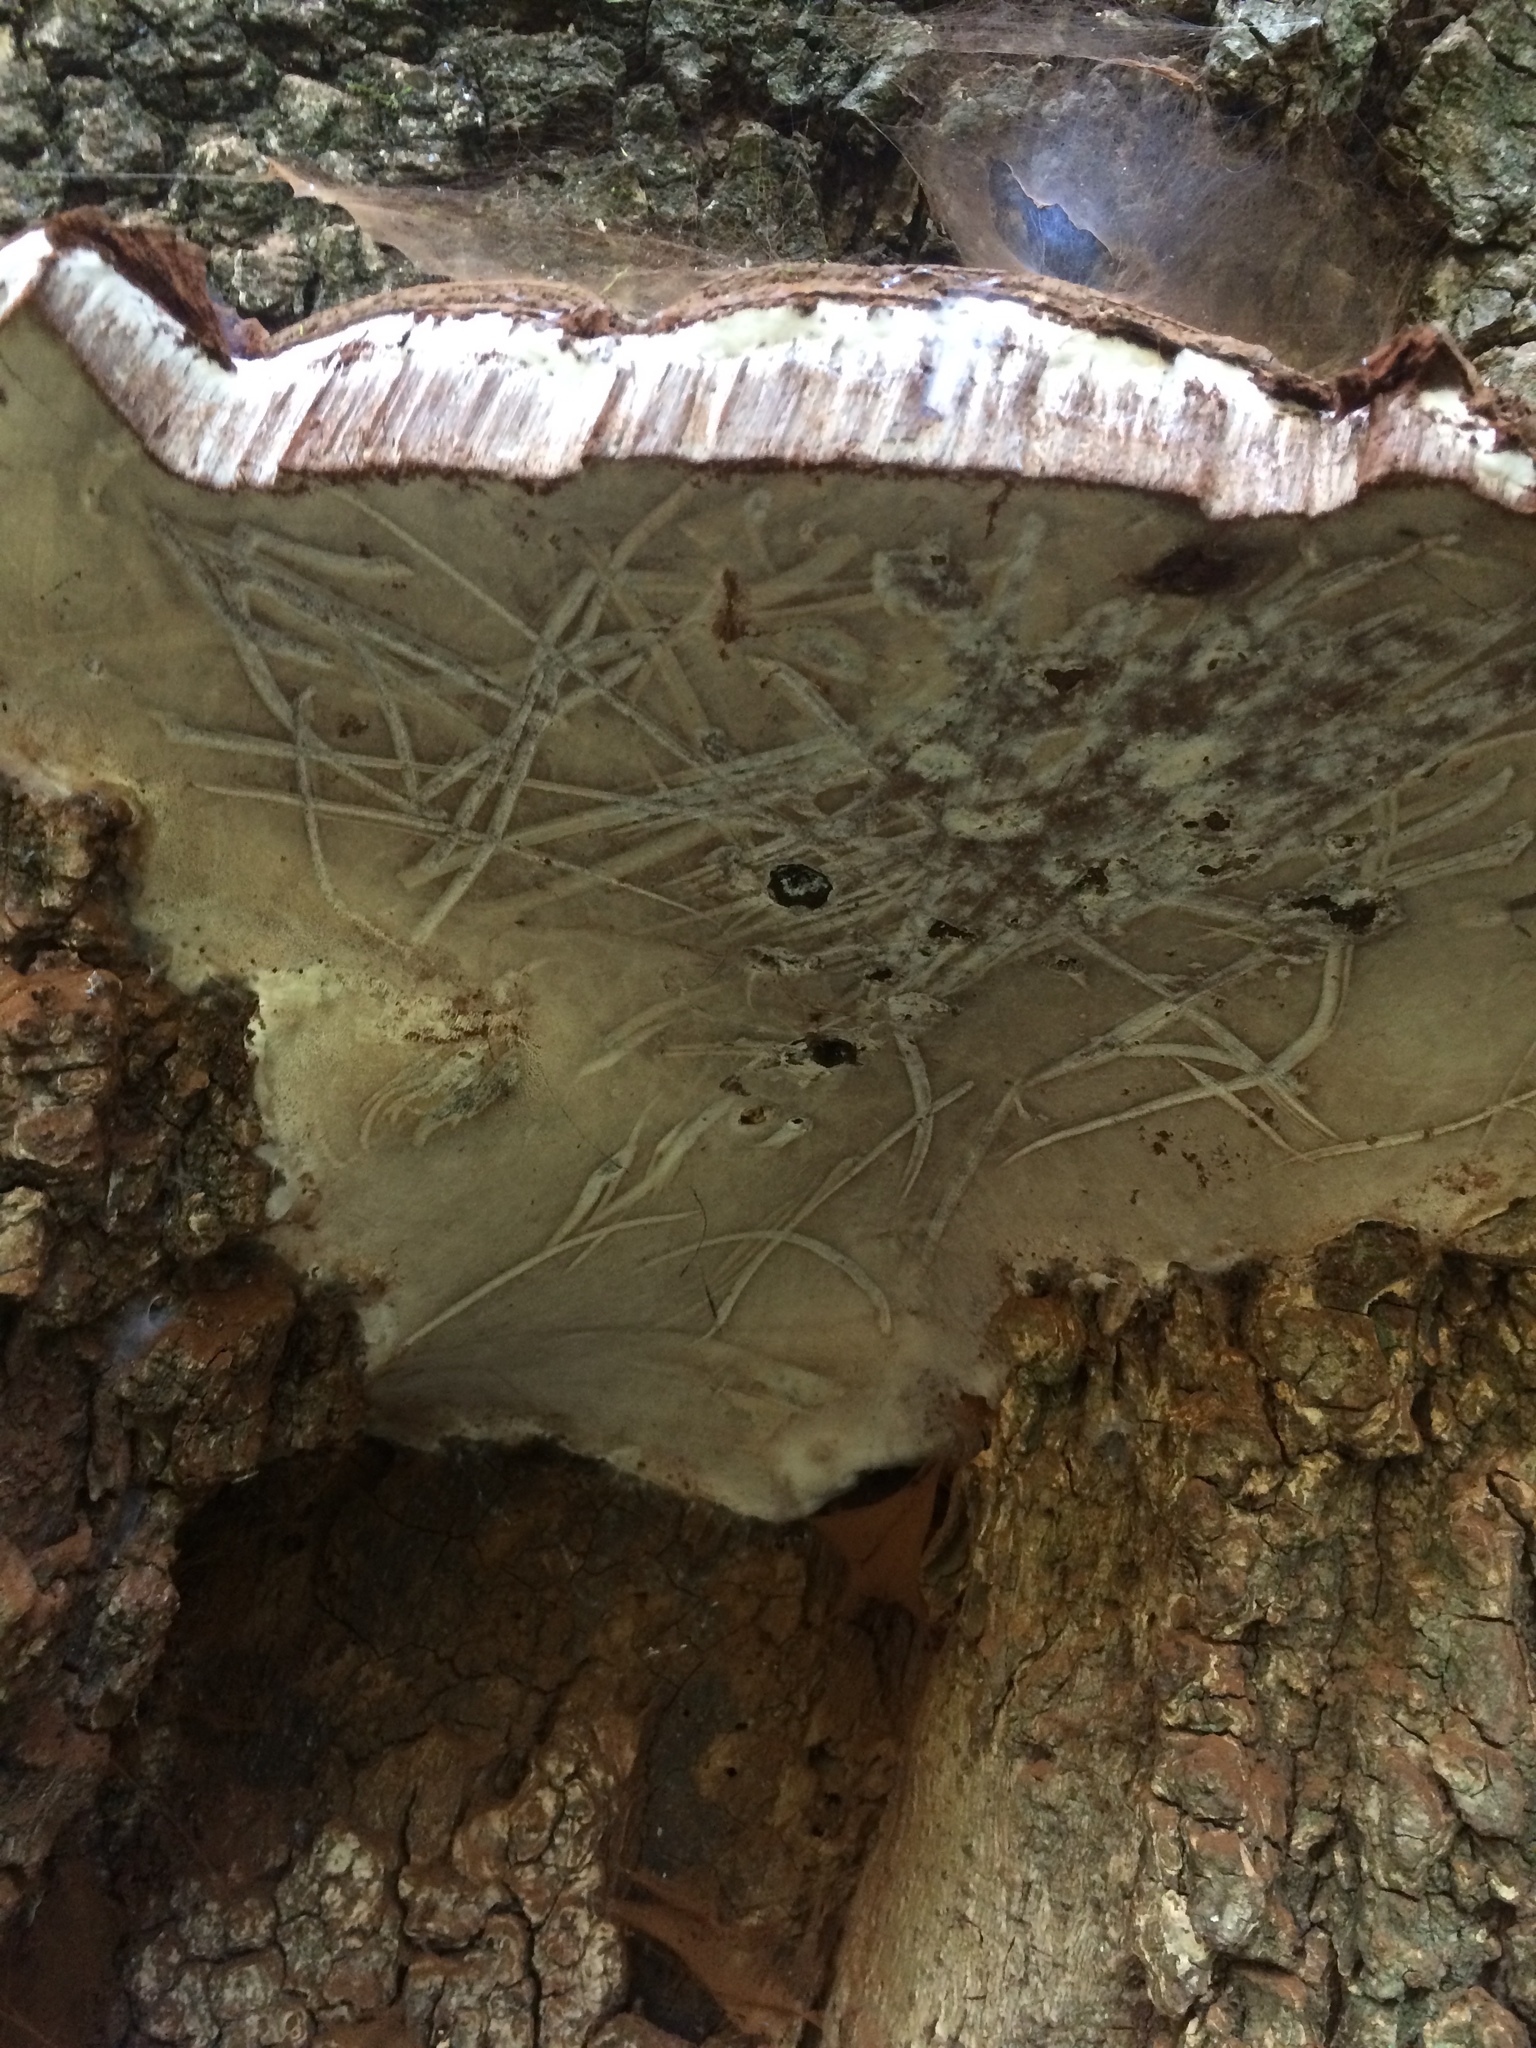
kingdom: Fungi
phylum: Basidiomycota
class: Agaricomycetes
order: Polyporales
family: Polyporaceae
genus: Ganoderma
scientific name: Ganoderma brownii
